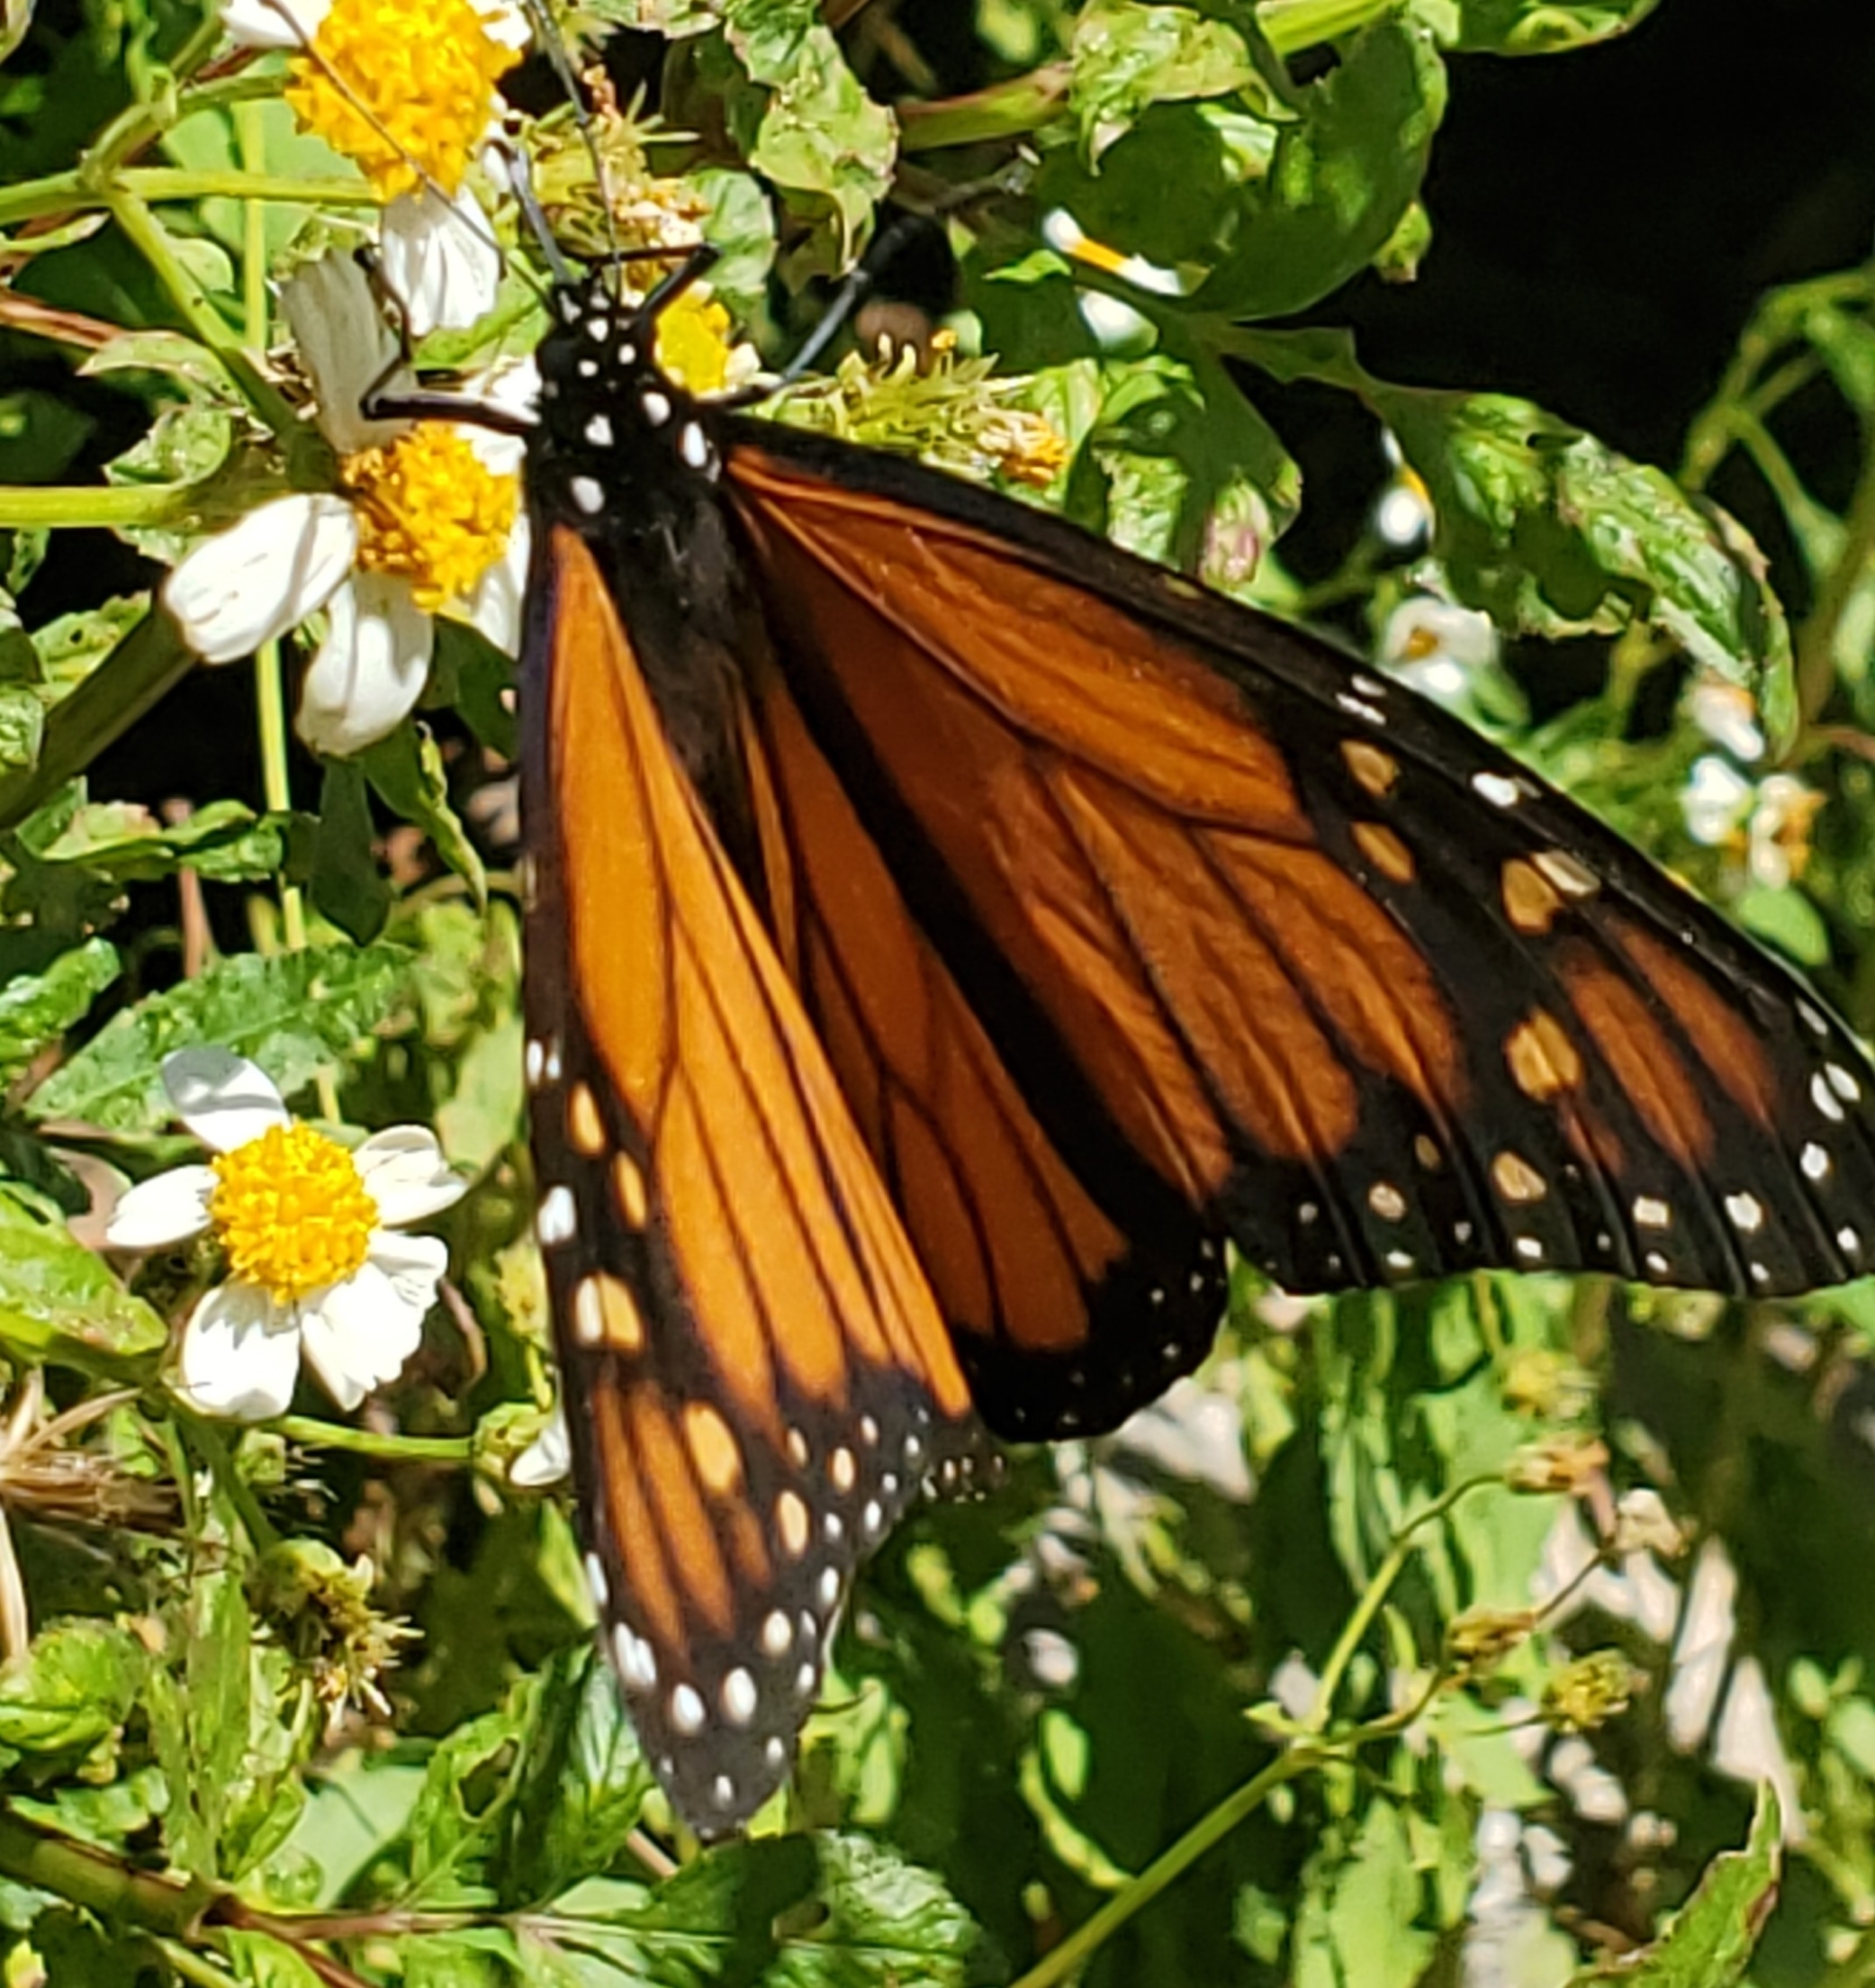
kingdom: Animalia
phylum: Arthropoda
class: Insecta
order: Lepidoptera
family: Nymphalidae
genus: Danaus
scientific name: Danaus plexippus
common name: Monarch
